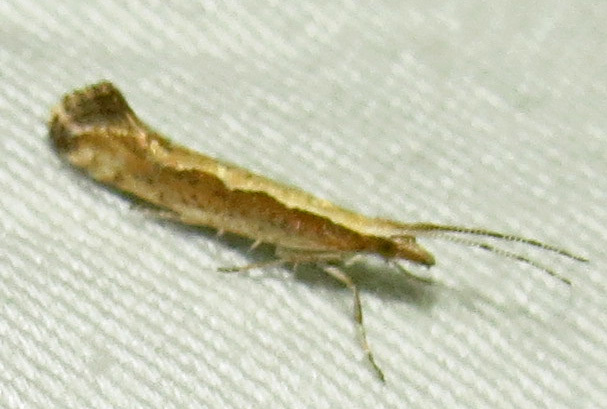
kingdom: Animalia
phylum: Arthropoda
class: Insecta
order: Lepidoptera
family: Plutellidae
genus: Plutella
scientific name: Plutella xylostella
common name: Diamond-back moth
